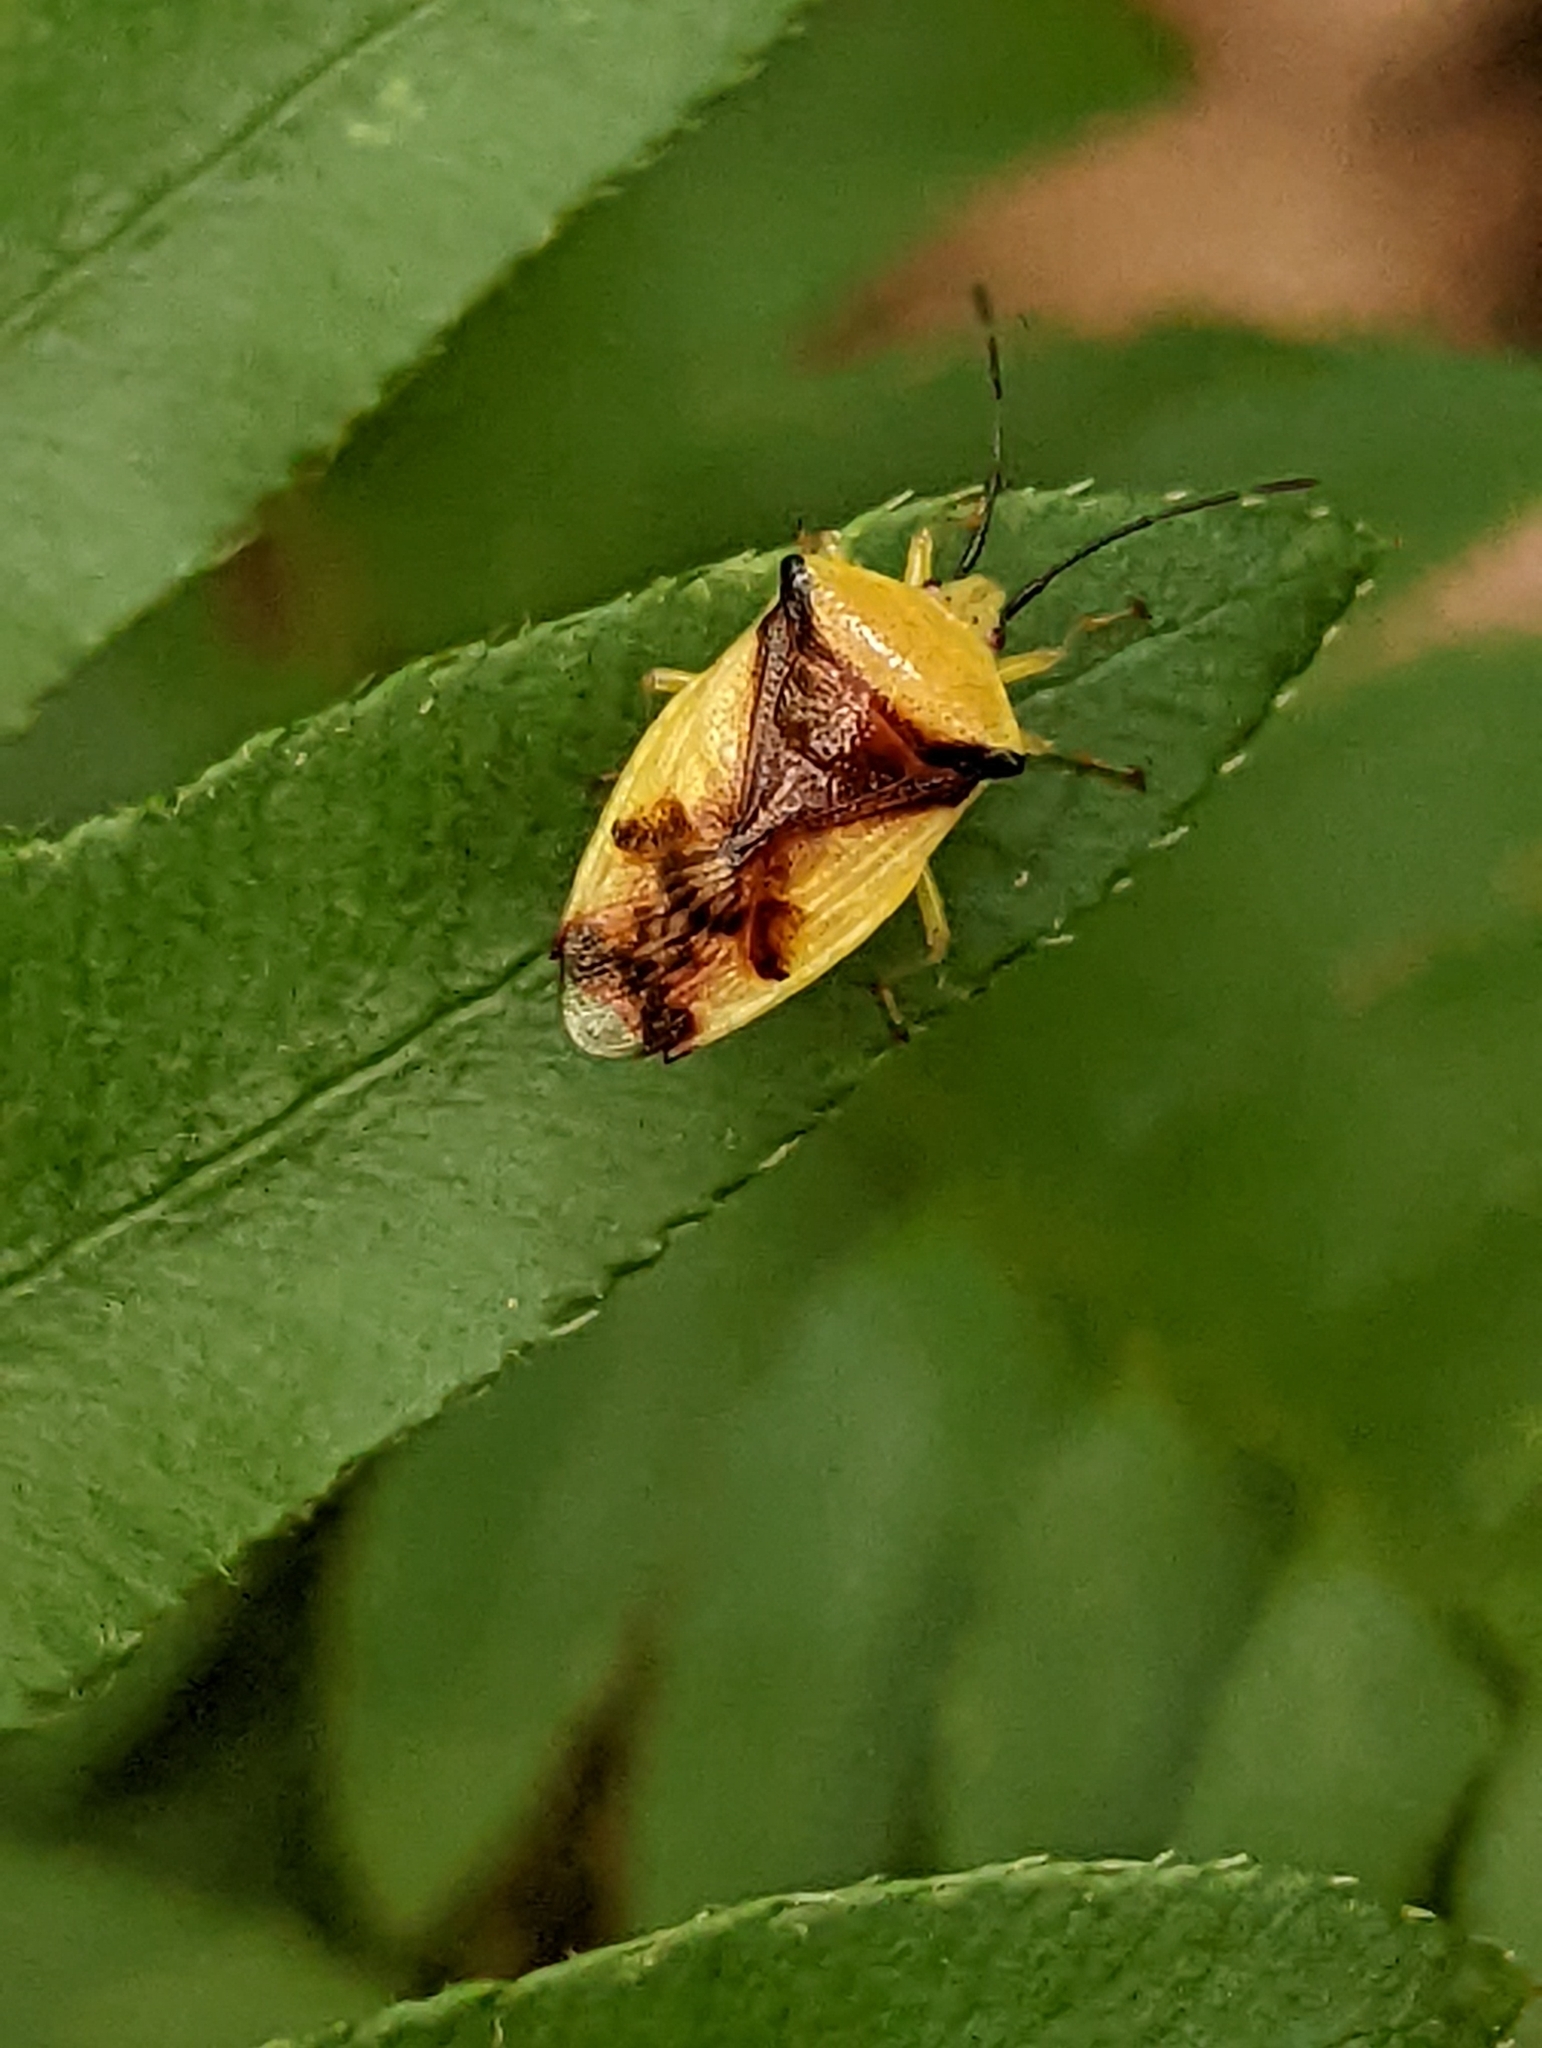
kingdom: Animalia
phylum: Arthropoda
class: Insecta
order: Hemiptera
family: Acanthosomatidae
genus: Elasmostethus
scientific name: Elasmostethus atricornis
